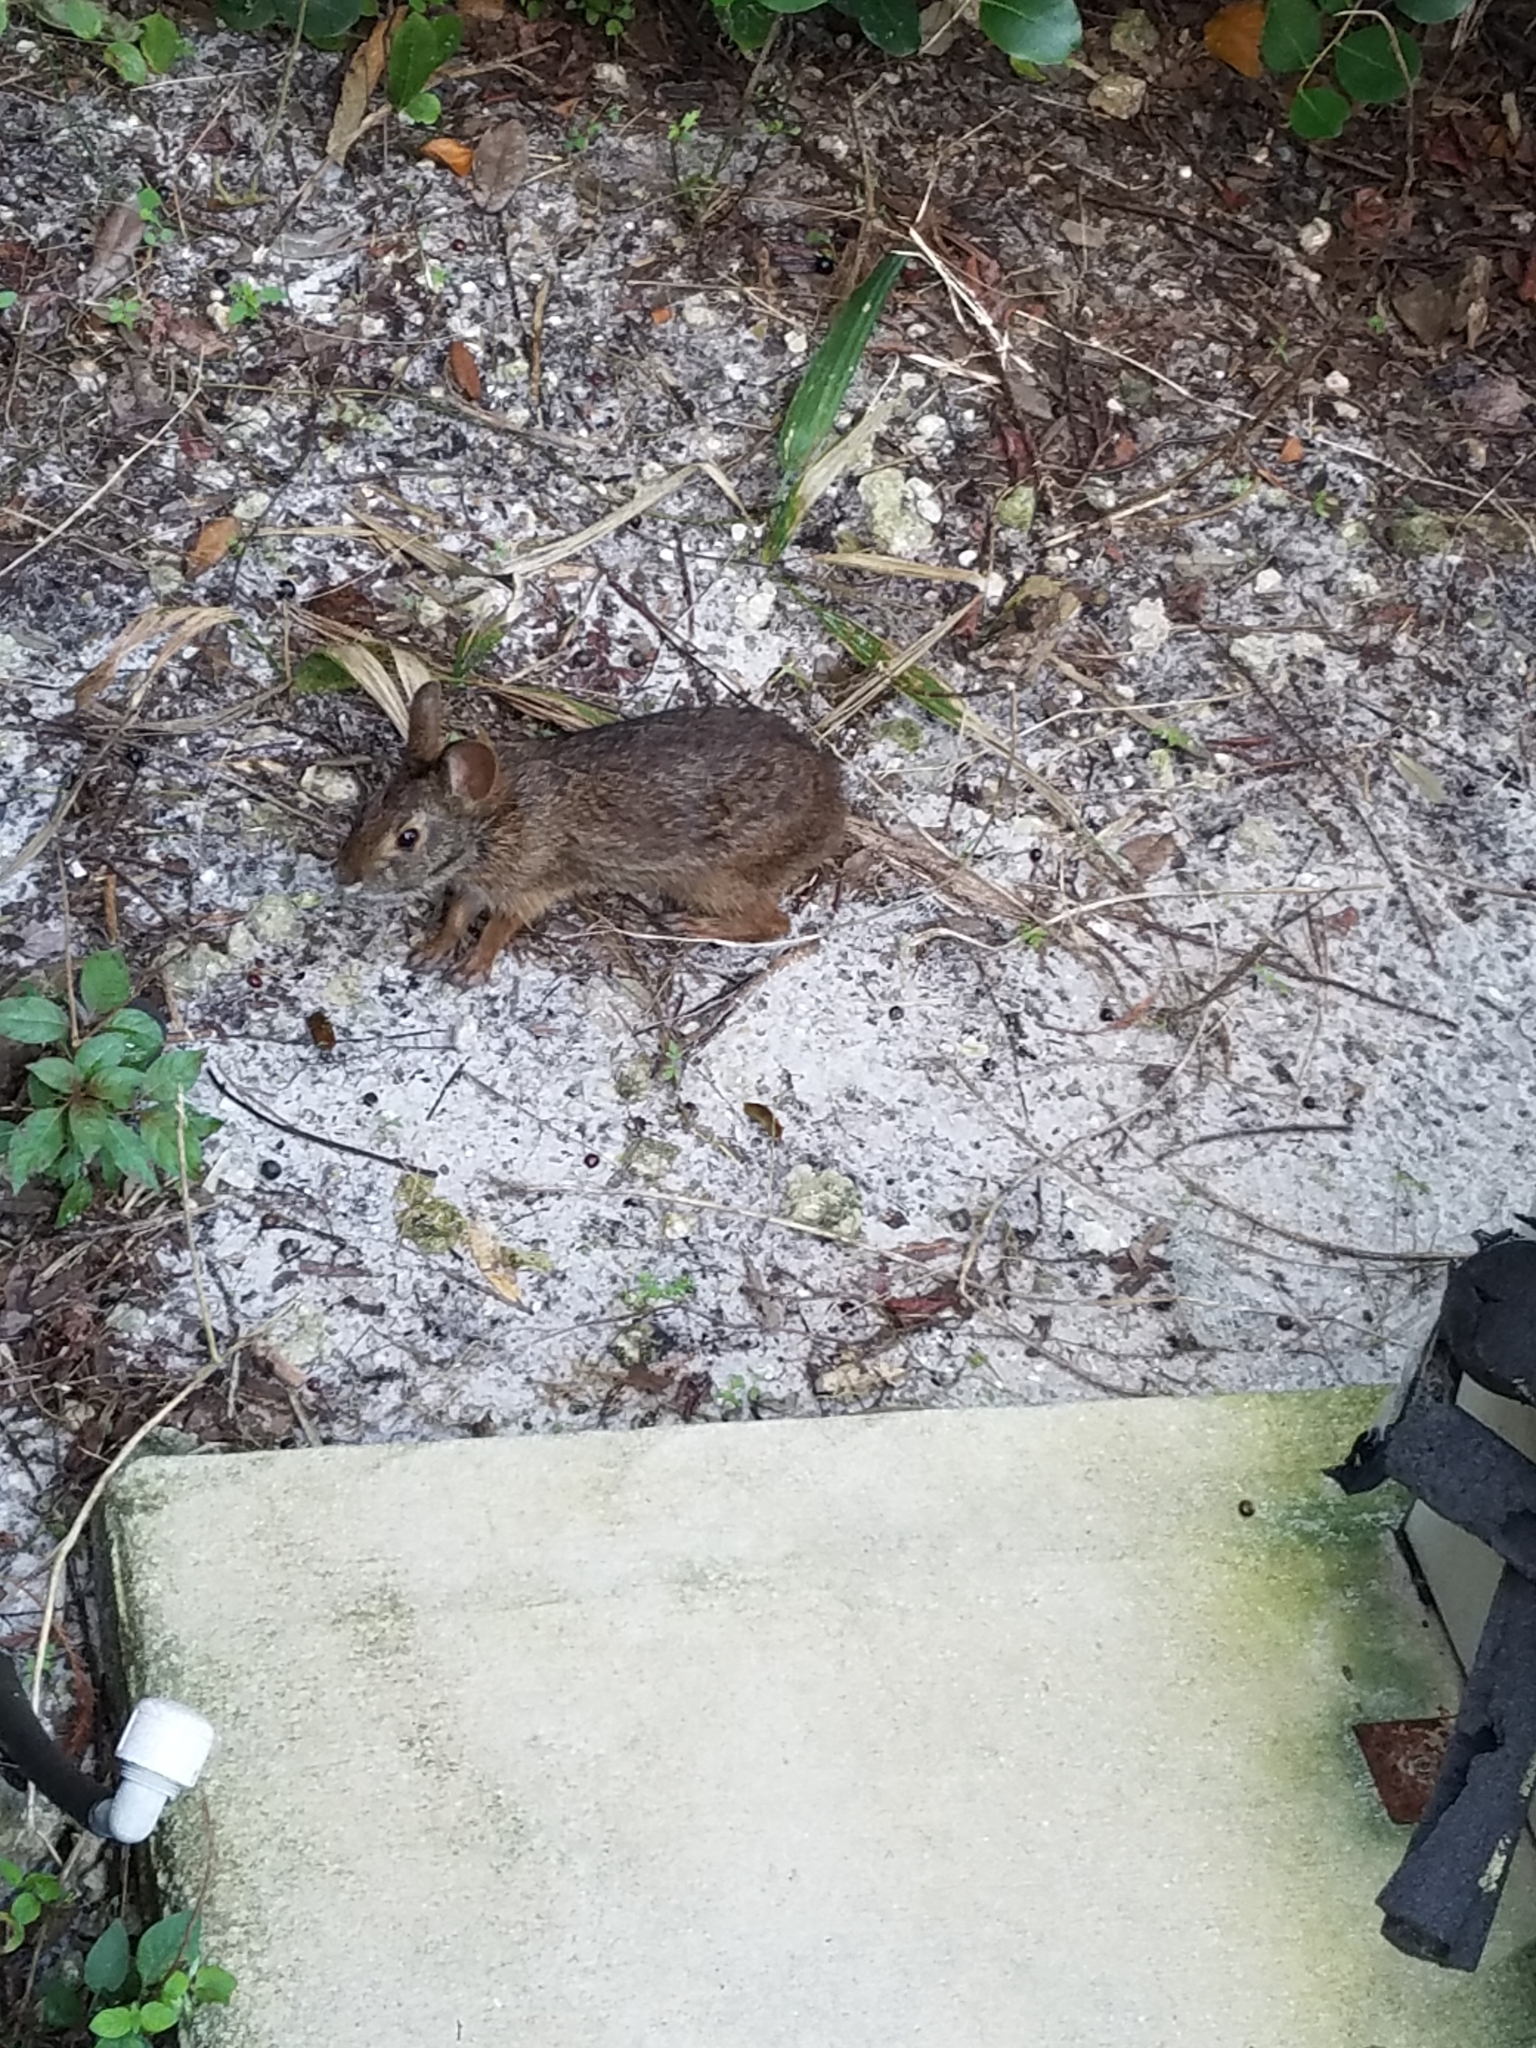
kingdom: Animalia
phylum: Chordata
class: Mammalia
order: Lagomorpha
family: Leporidae
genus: Sylvilagus
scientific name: Sylvilagus palustris
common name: Marsh rabbit
